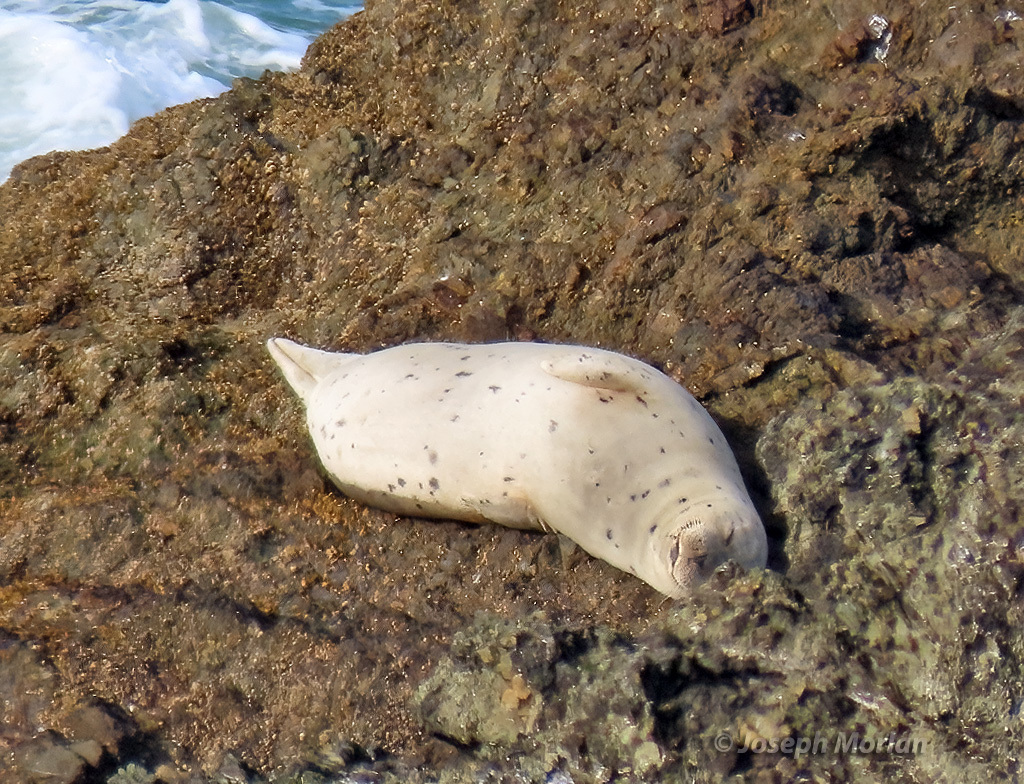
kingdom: Animalia
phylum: Chordata
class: Mammalia
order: Carnivora
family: Phocidae
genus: Phoca
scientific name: Phoca vitulina
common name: Harbor seal
